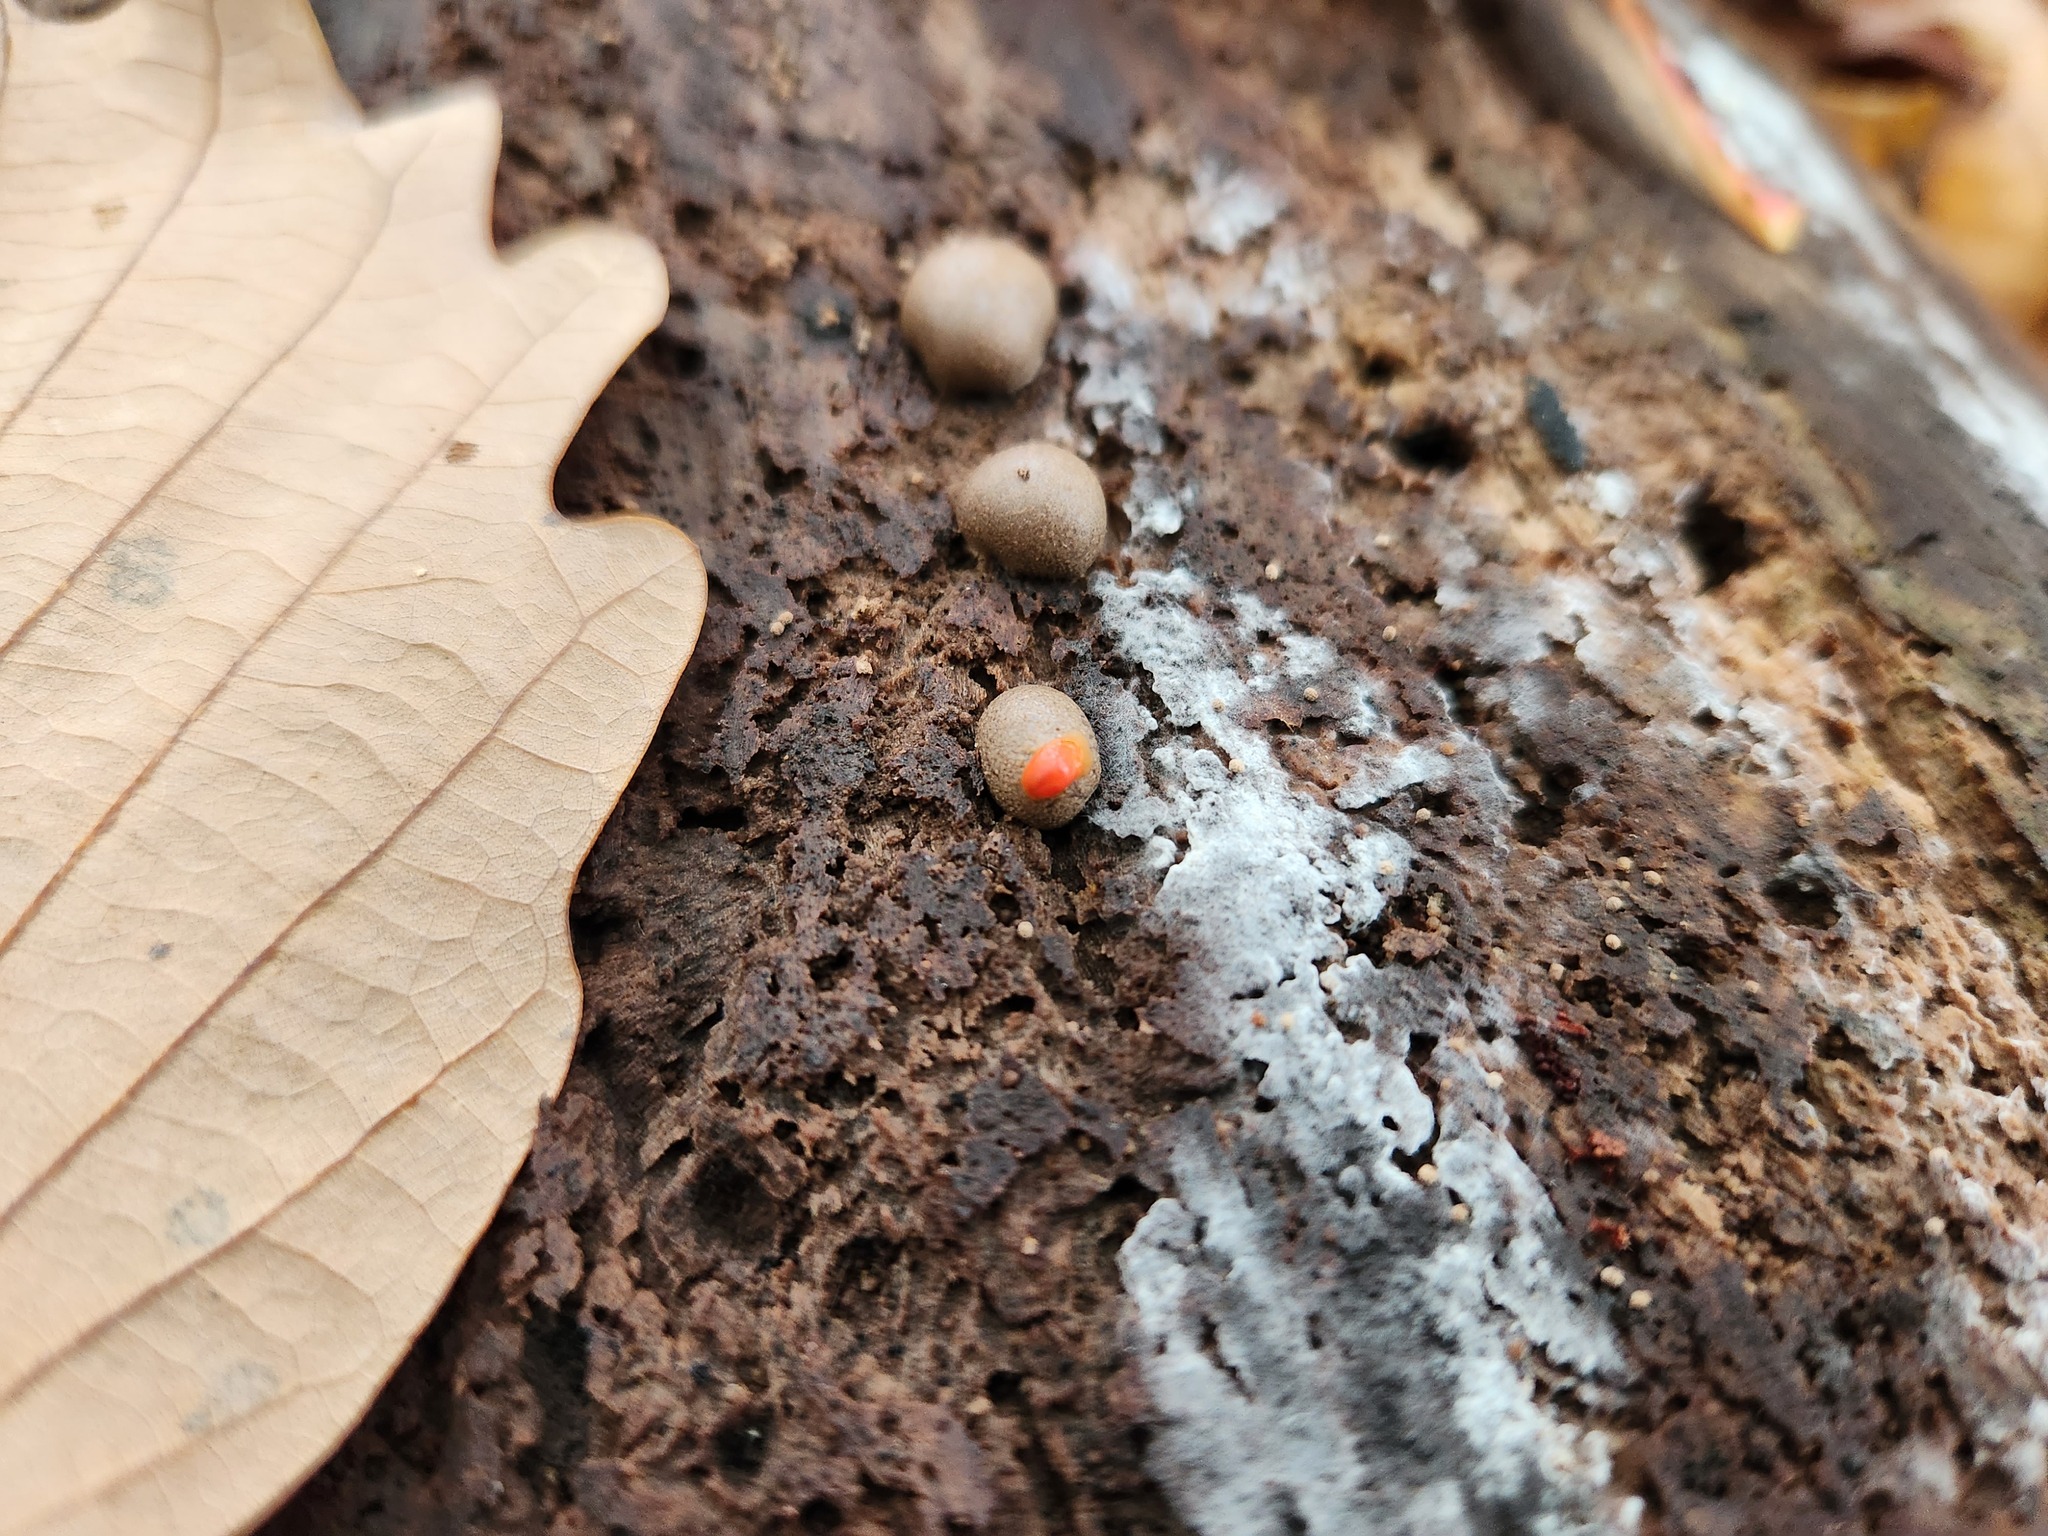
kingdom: Protozoa
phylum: Mycetozoa
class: Myxomycetes
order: Cribrariales
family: Tubiferaceae
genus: Lycogala
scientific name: Lycogala epidendrum
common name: Wolf's milk
